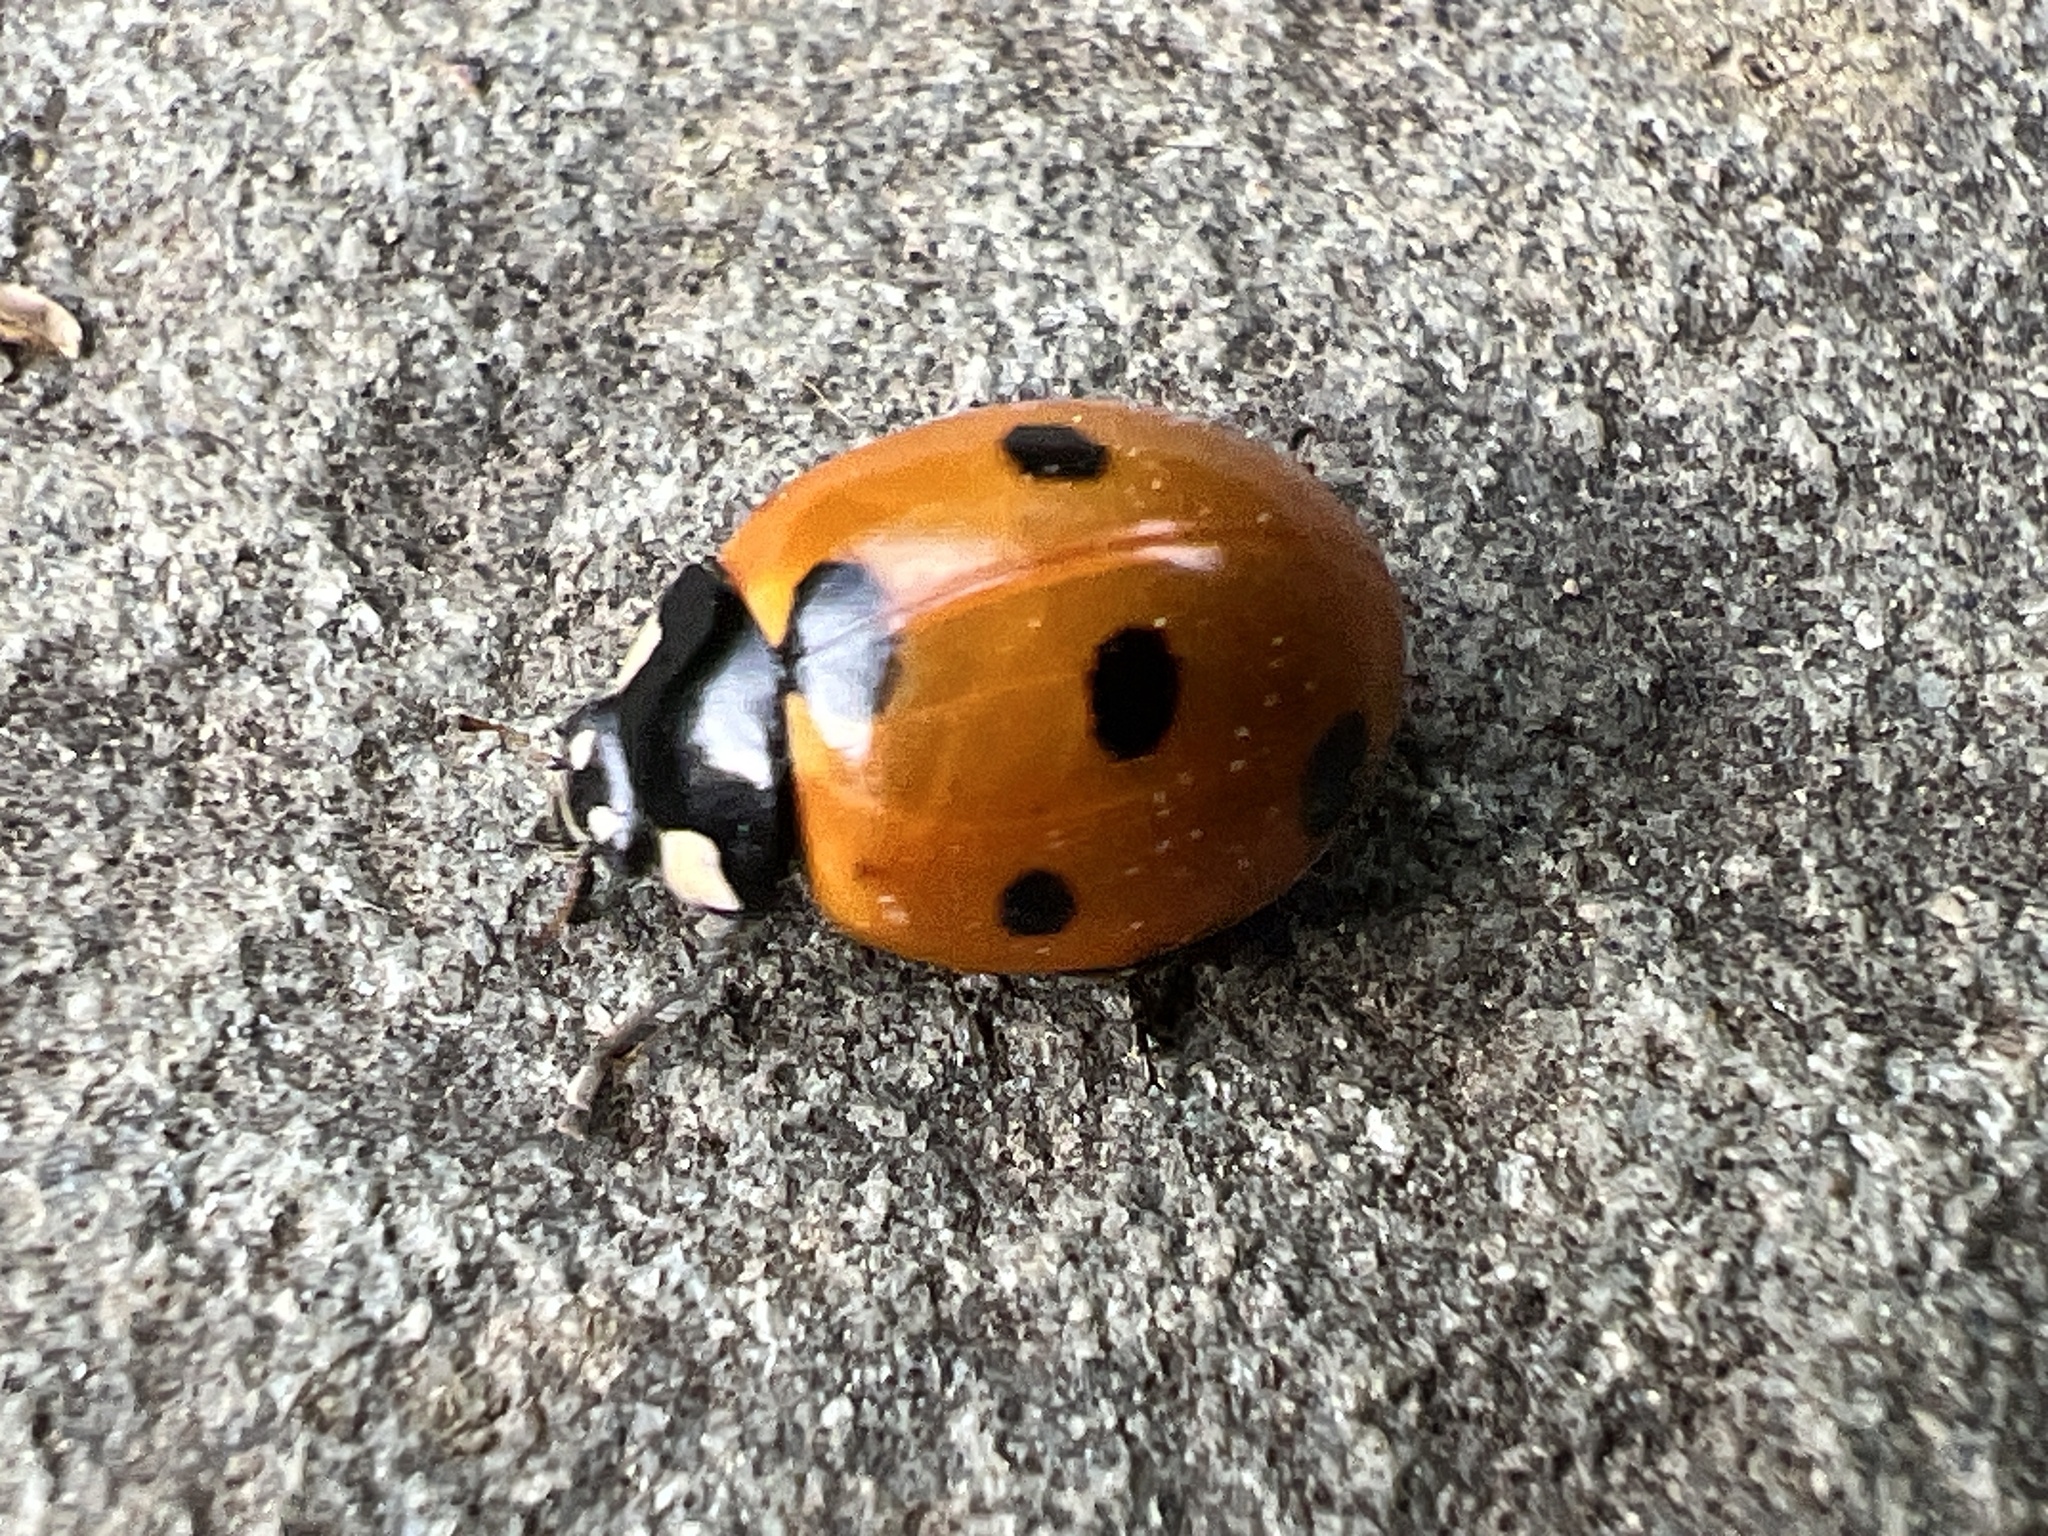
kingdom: Animalia
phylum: Arthropoda
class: Insecta
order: Coleoptera
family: Coccinellidae
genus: Coccinella
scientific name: Coccinella septempunctata
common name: Sevenspotted lady beetle
